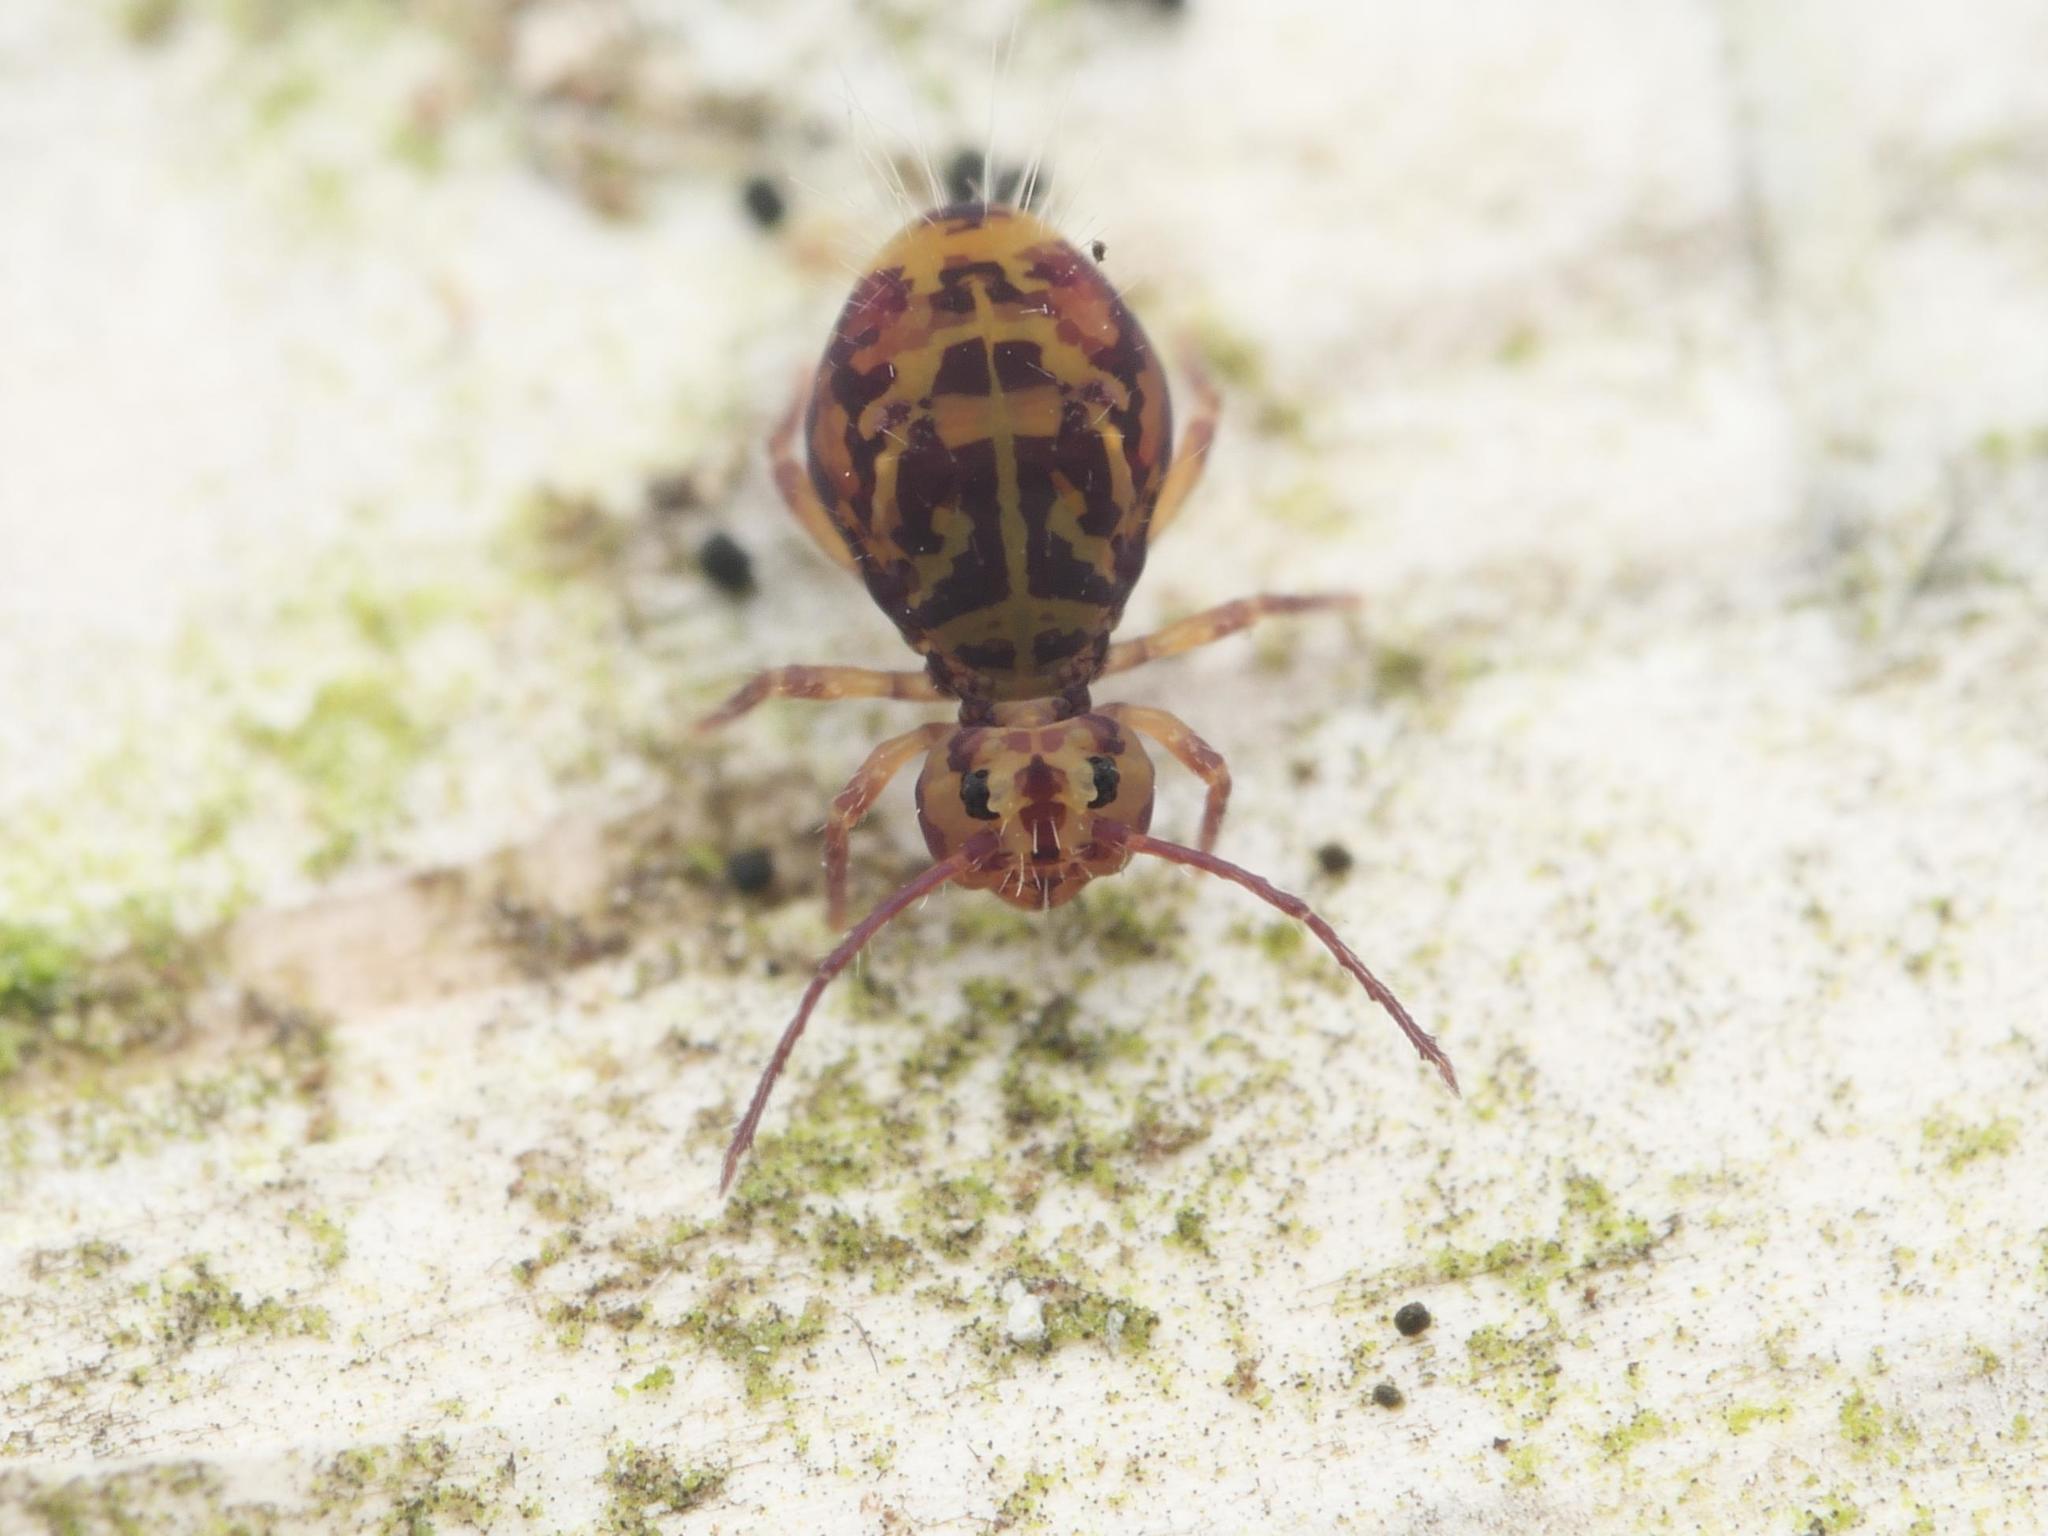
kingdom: Animalia
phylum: Arthropoda
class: Collembola
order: Symphypleona
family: Dicyrtomidae
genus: Dicyrtomina
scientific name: Dicyrtomina ornata
